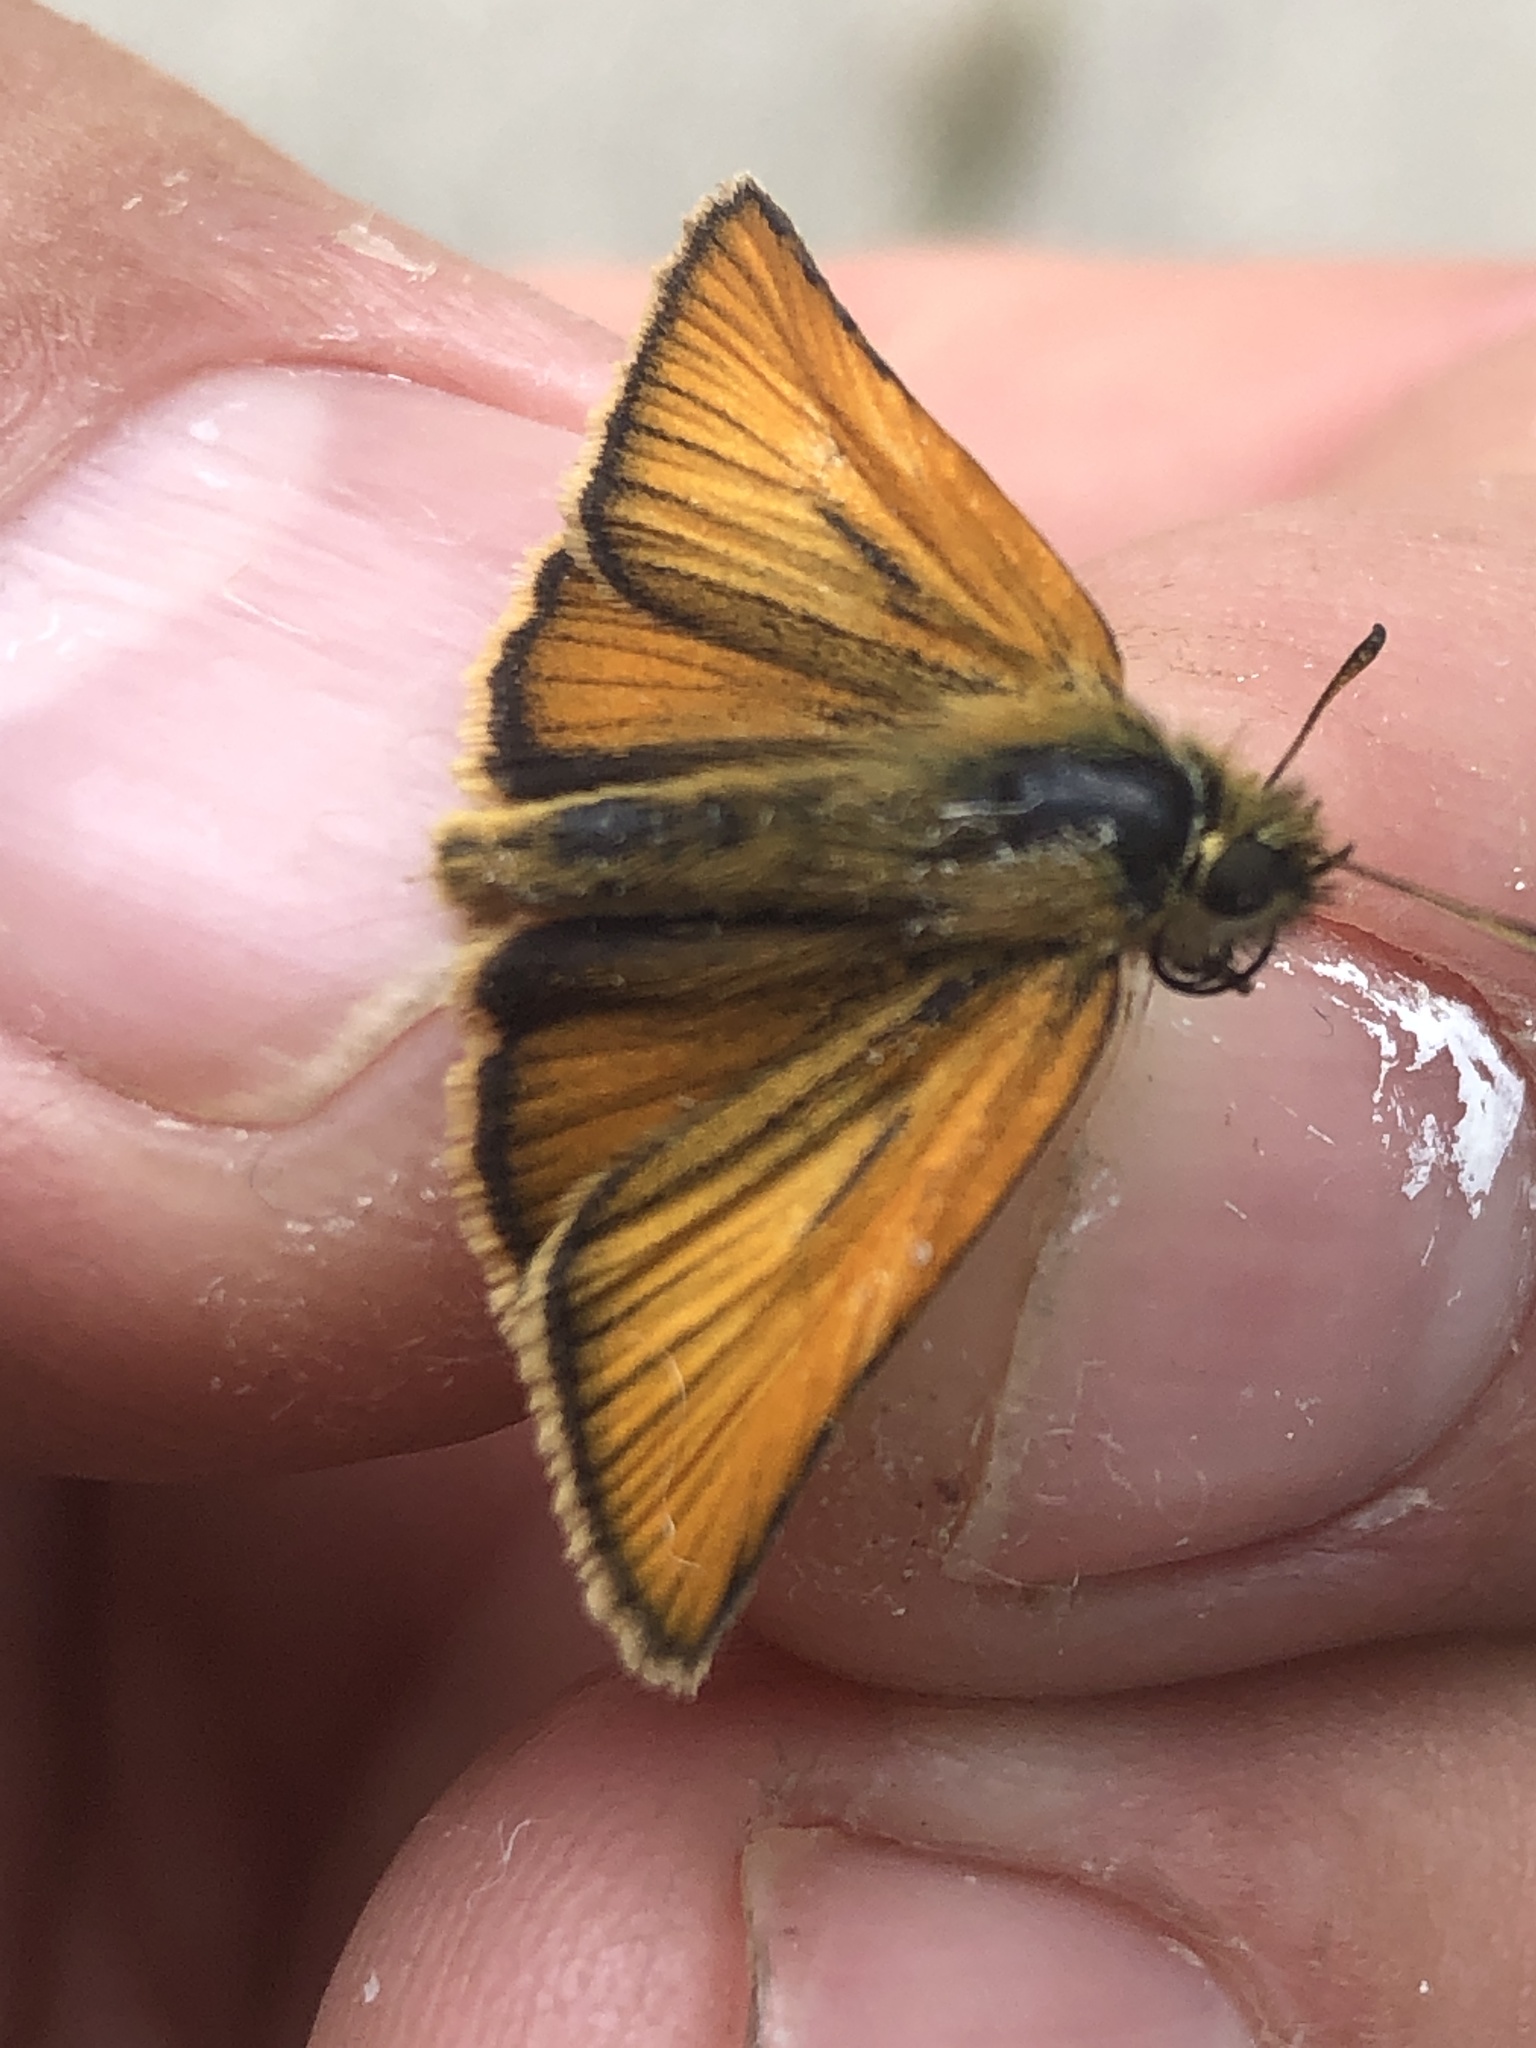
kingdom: Animalia
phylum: Arthropoda
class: Insecta
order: Lepidoptera
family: Hesperiidae
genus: Thymelicus
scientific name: Thymelicus lineola
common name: Essex skipper
